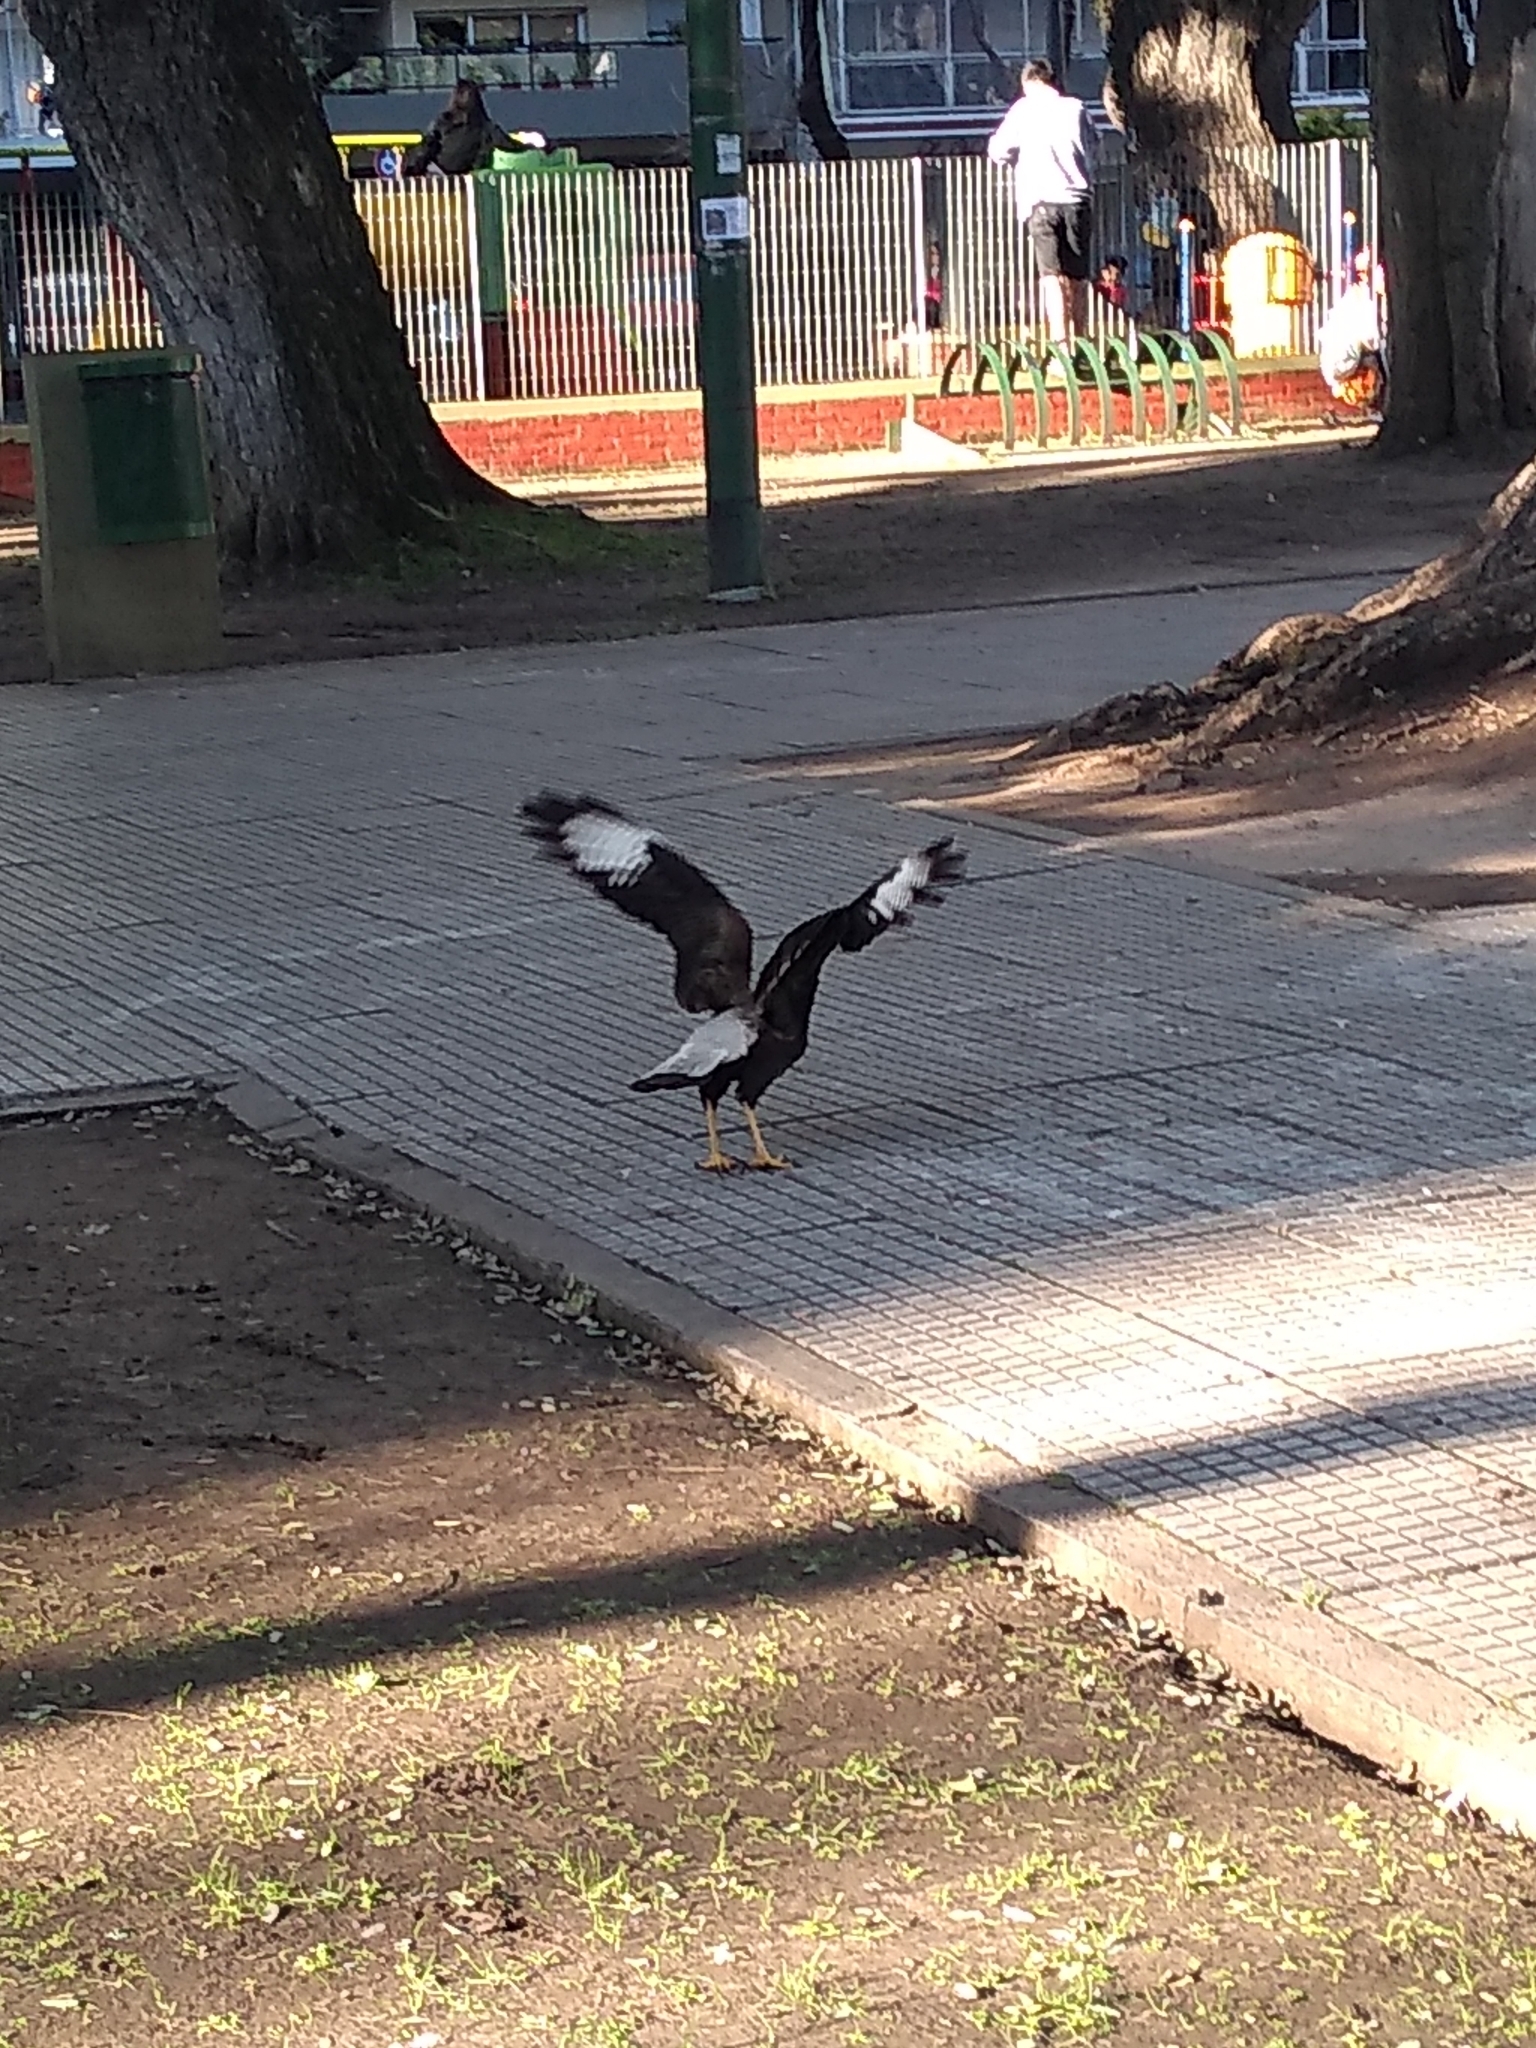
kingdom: Animalia
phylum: Chordata
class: Aves
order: Falconiformes
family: Falconidae
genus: Caracara
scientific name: Caracara plancus
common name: Southern caracara
